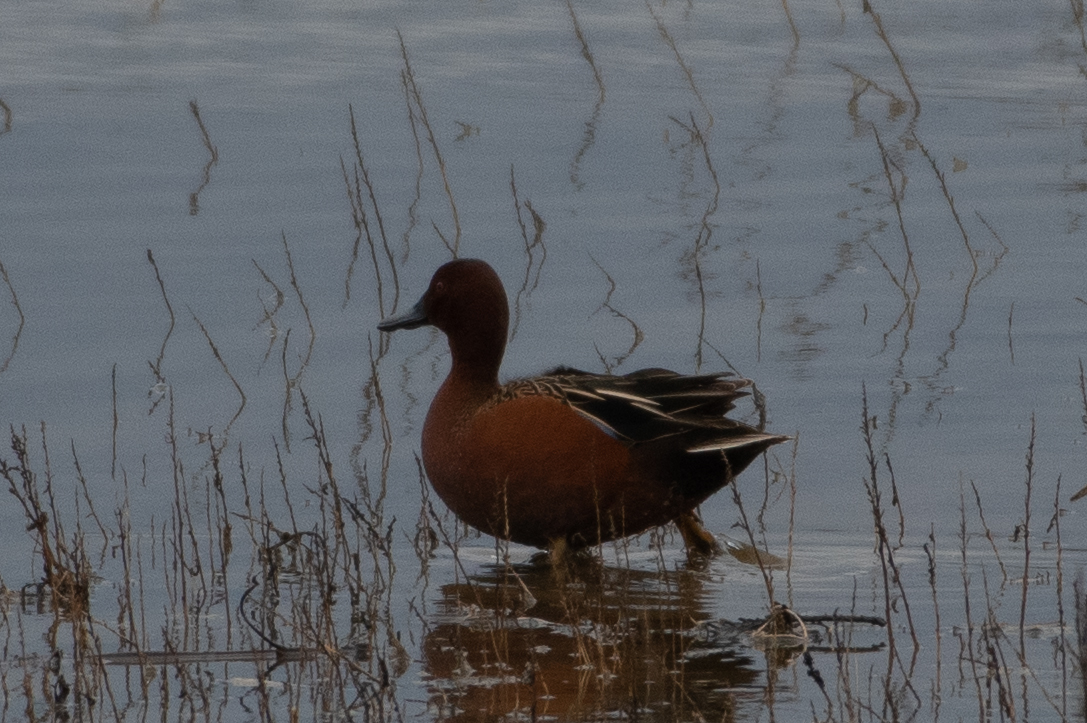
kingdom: Animalia
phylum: Chordata
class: Aves
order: Anseriformes
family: Anatidae
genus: Spatula
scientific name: Spatula cyanoptera
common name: Cinnamon teal
